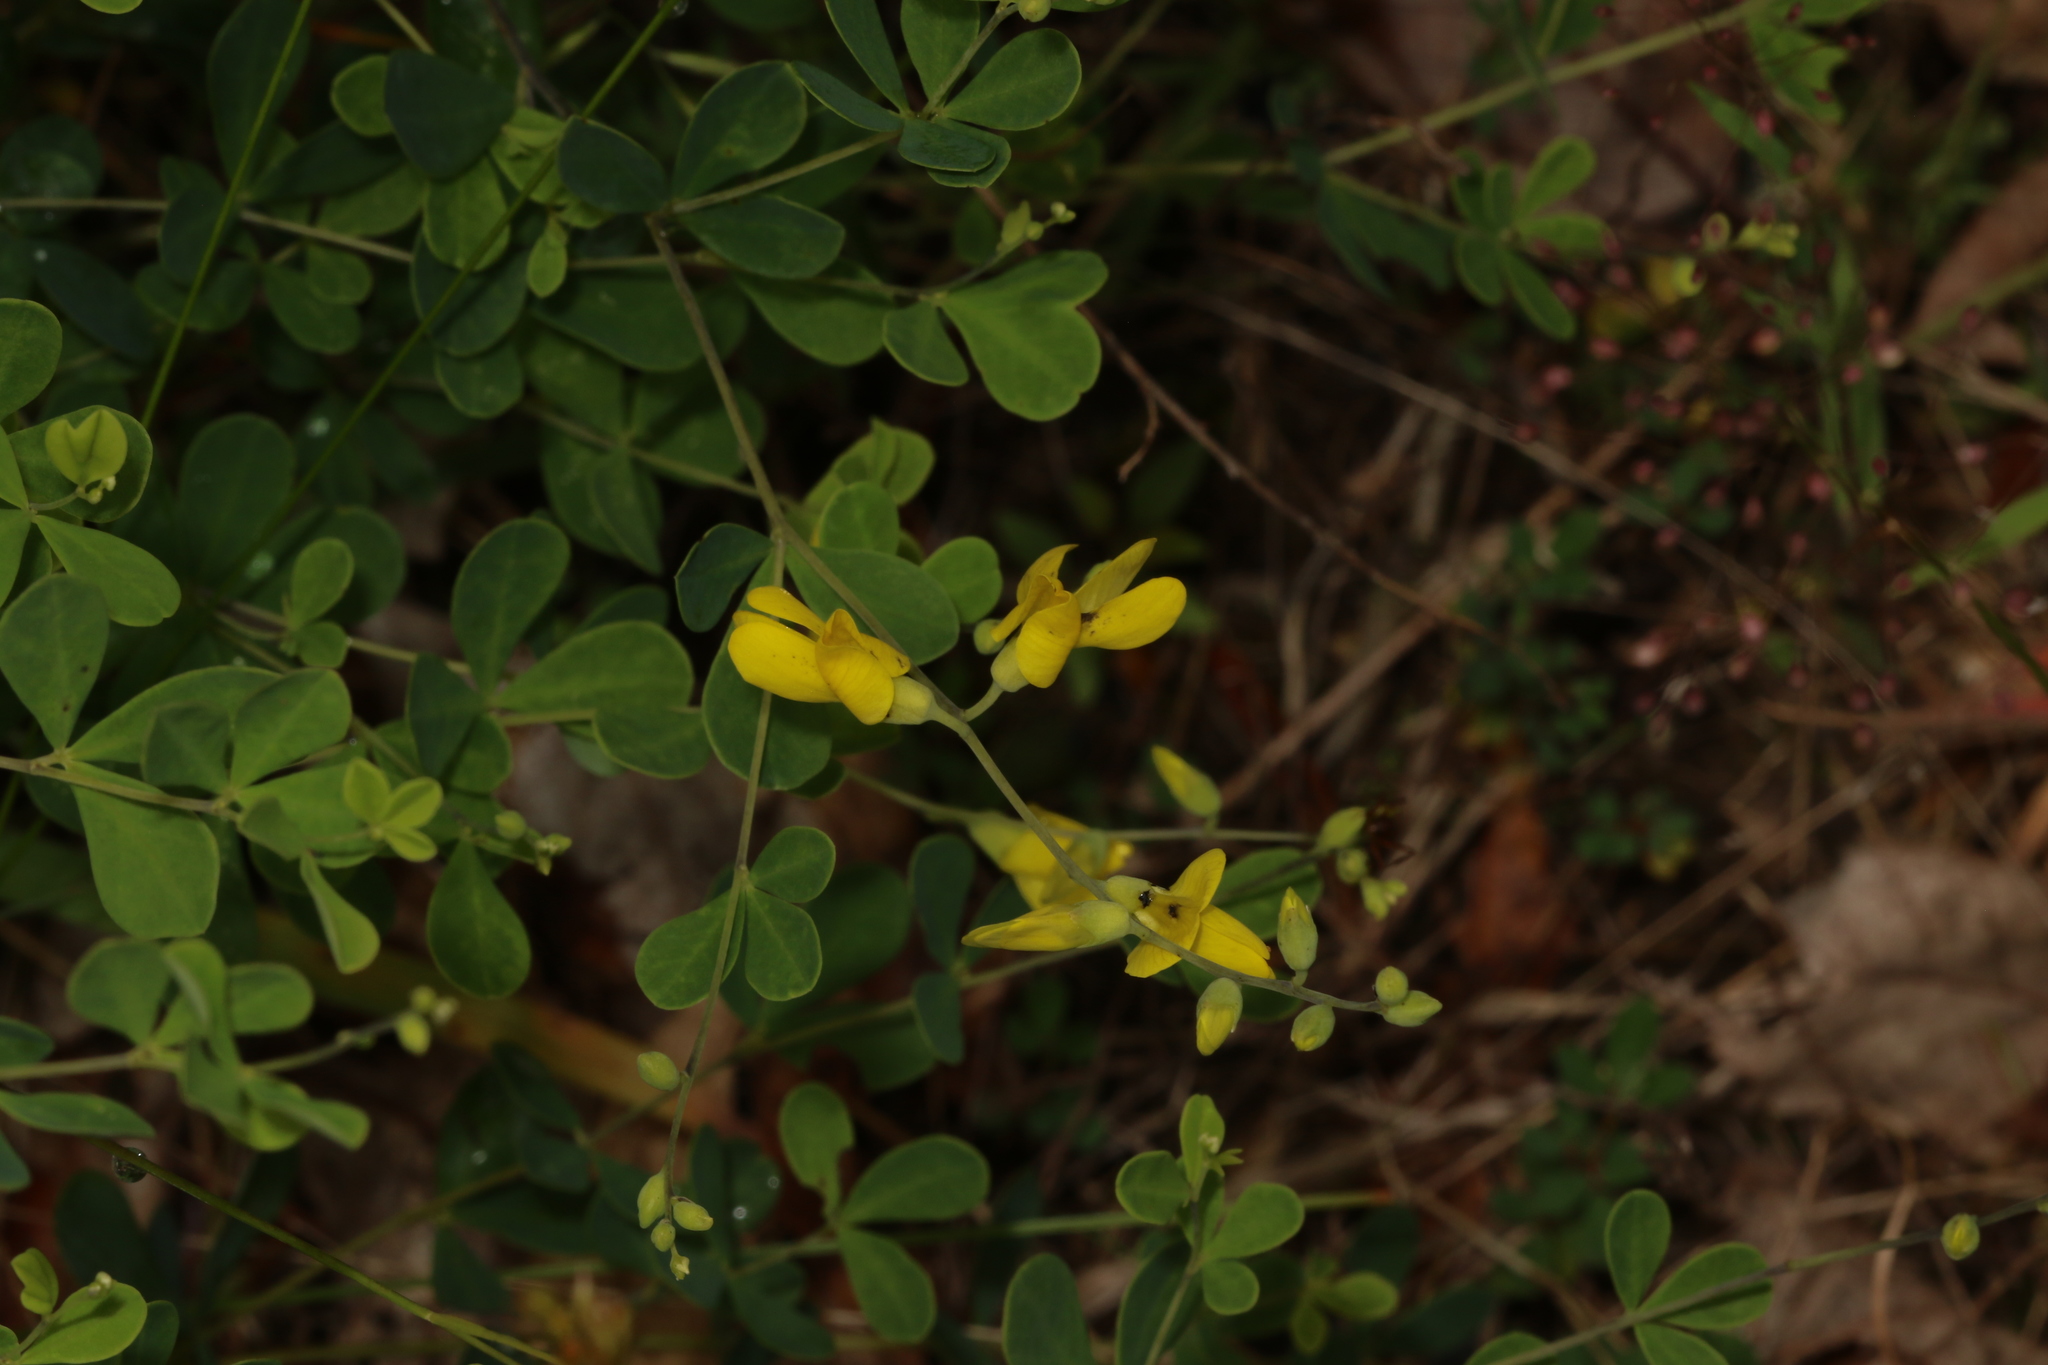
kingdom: Plantae
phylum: Tracheophyta
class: Magnoliopsida
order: Fabales
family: Fabaceae
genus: Baptisia
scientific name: Baptisia tinctoria
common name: Wild indigo
